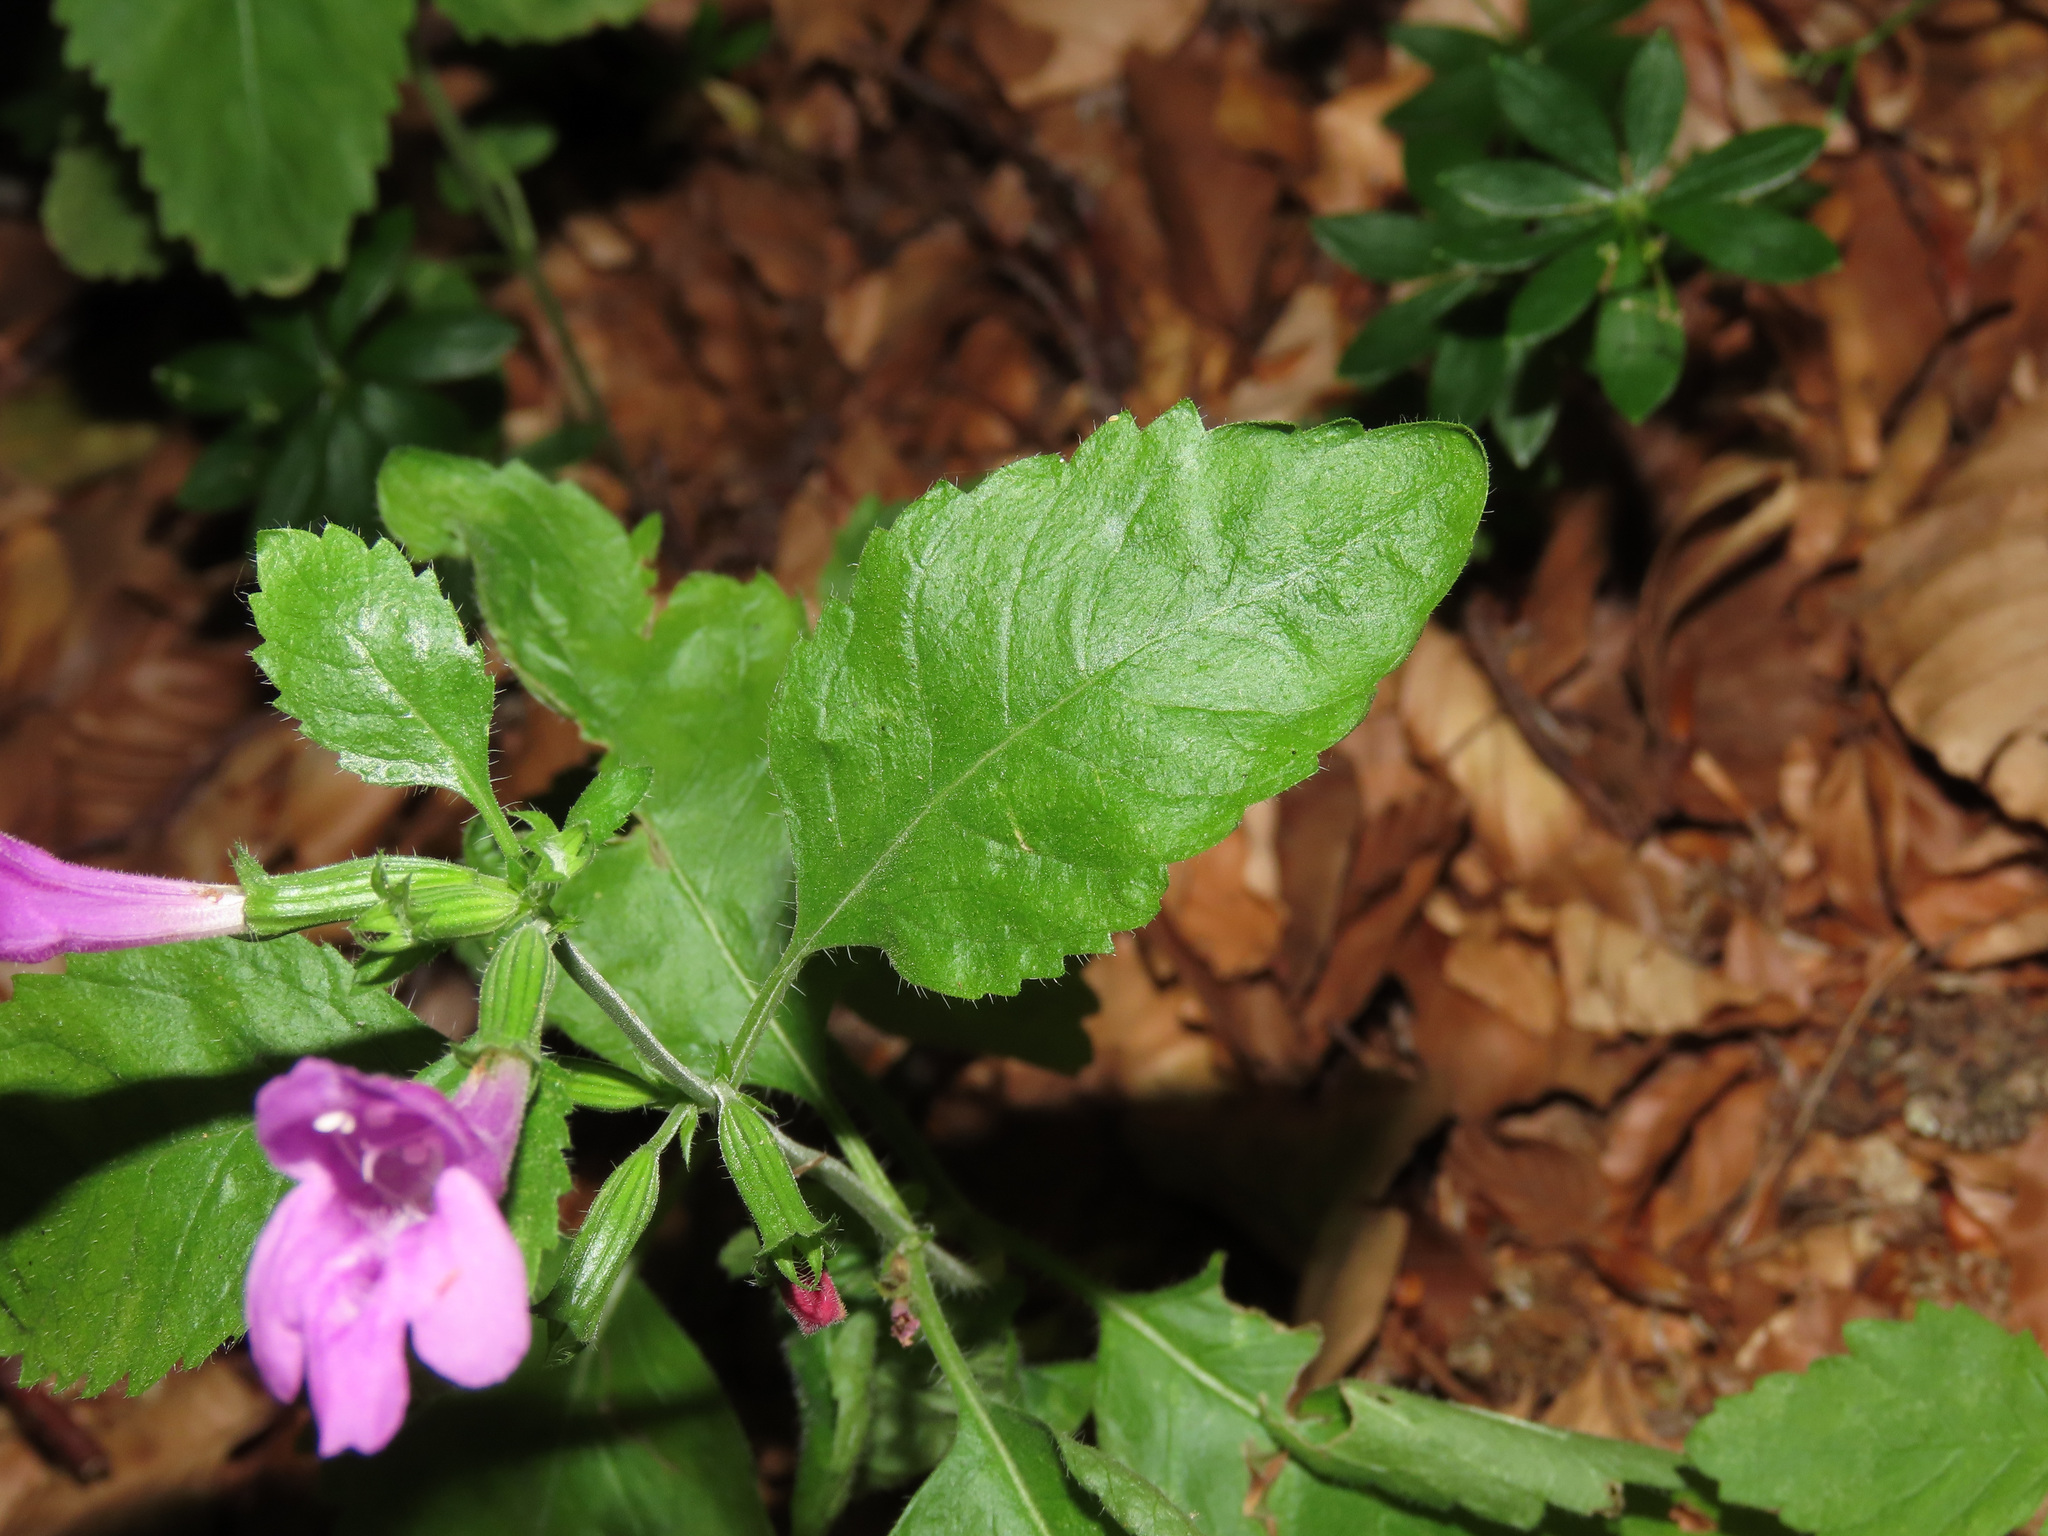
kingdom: Plantae
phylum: Tracheophyta
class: Magnoliopsida
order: Lamiales
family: Lamiaceae
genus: Clinopodium
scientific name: Clinopodium grandiflorum
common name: Greater calamint
